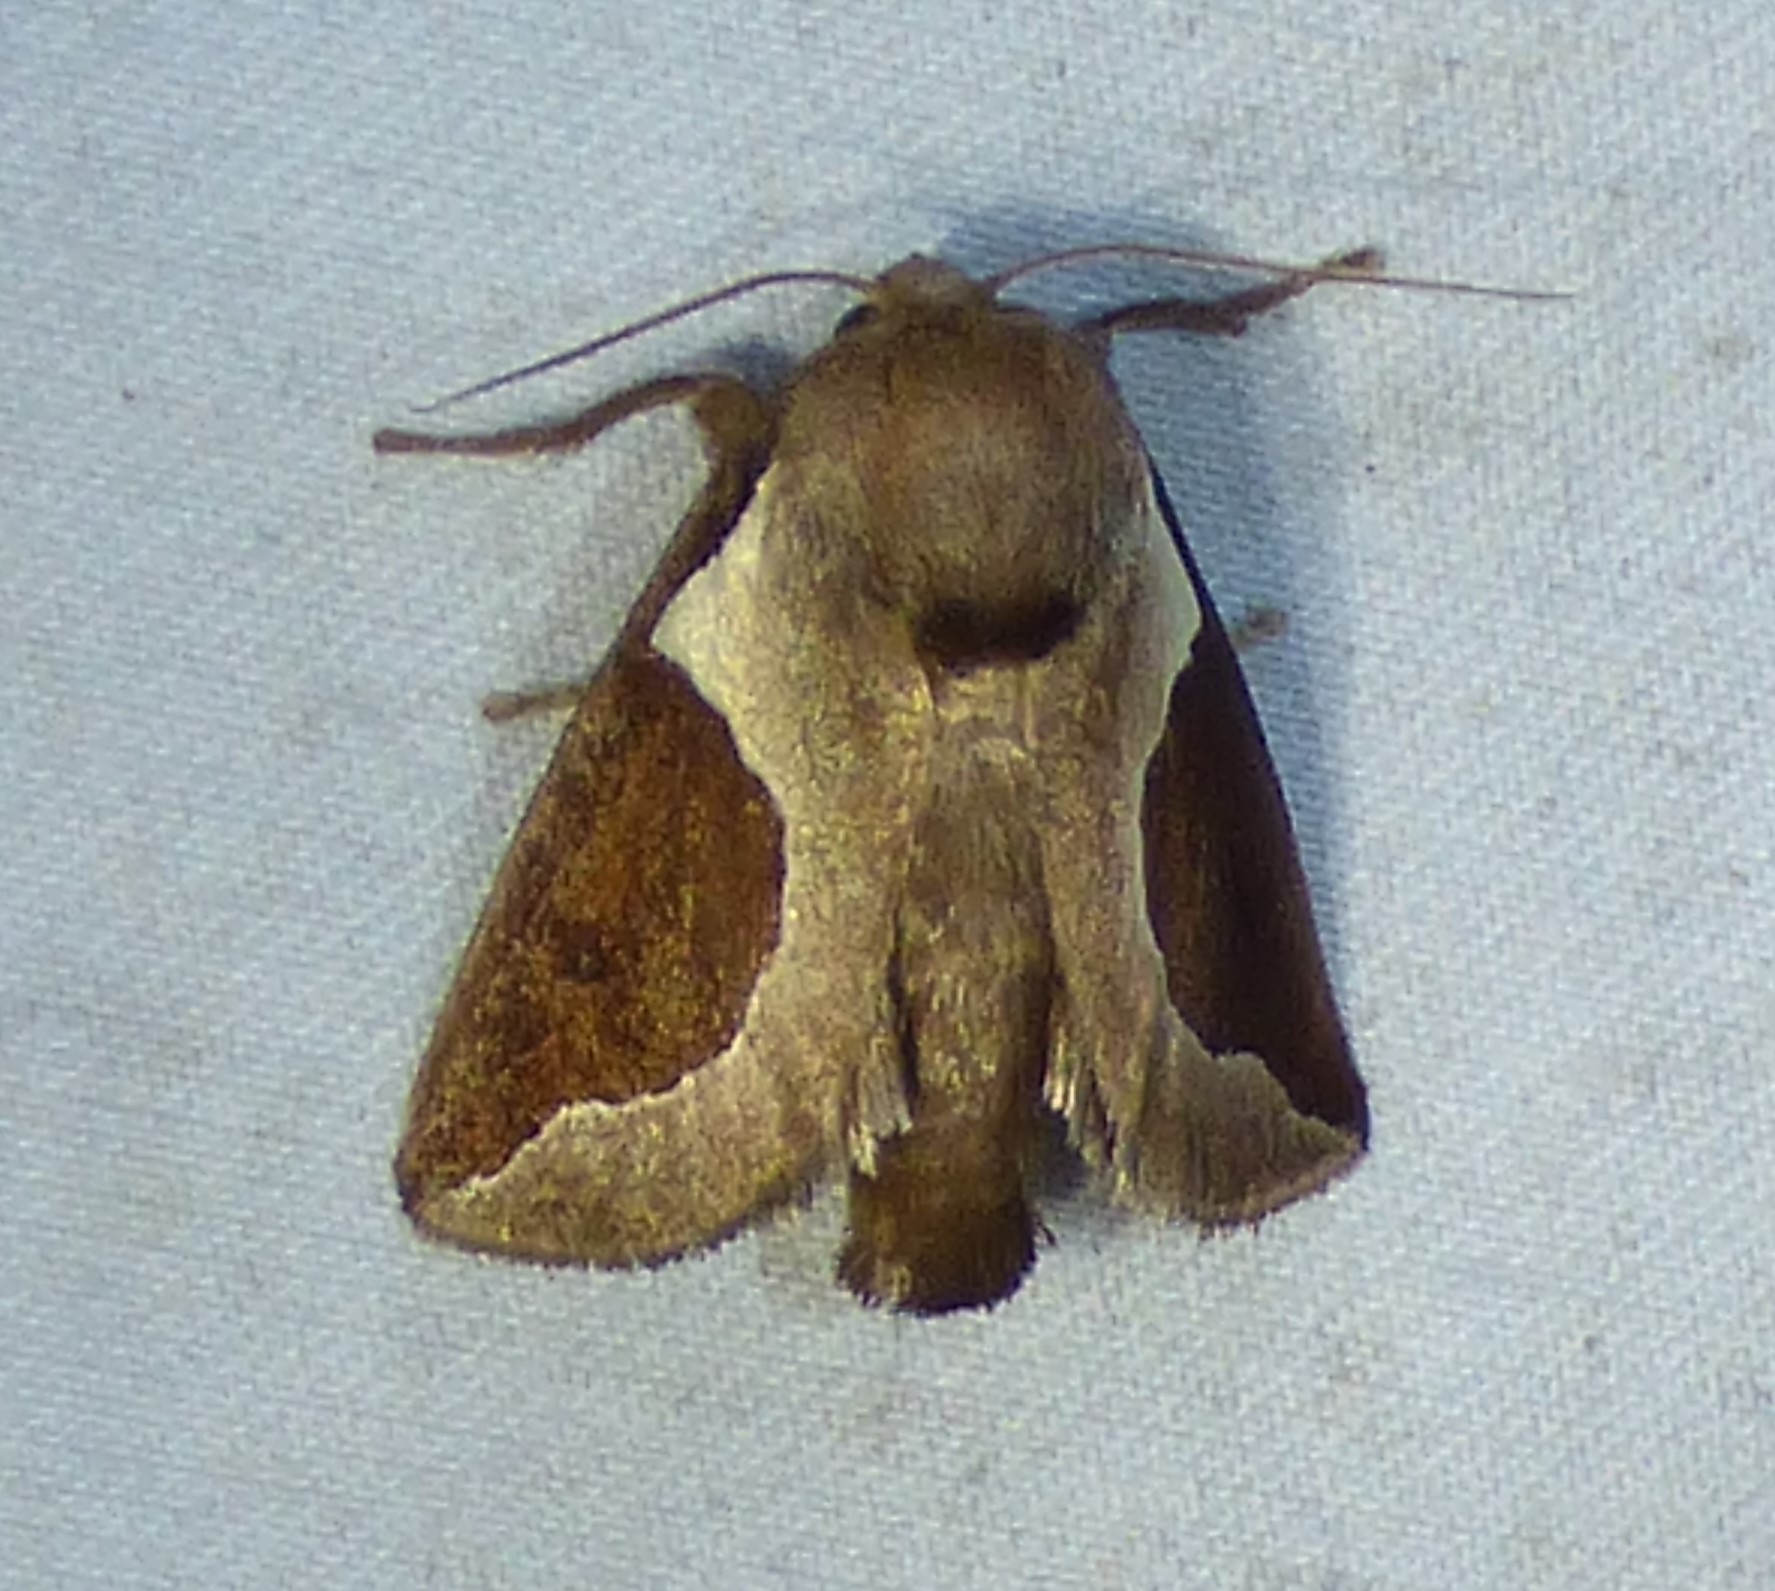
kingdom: Animalia
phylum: Arthropoda
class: Insecta
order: Lepidoptera
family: Limacodidae
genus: Prolimacodes
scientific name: Prolimacodes badia
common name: Skiff moth
